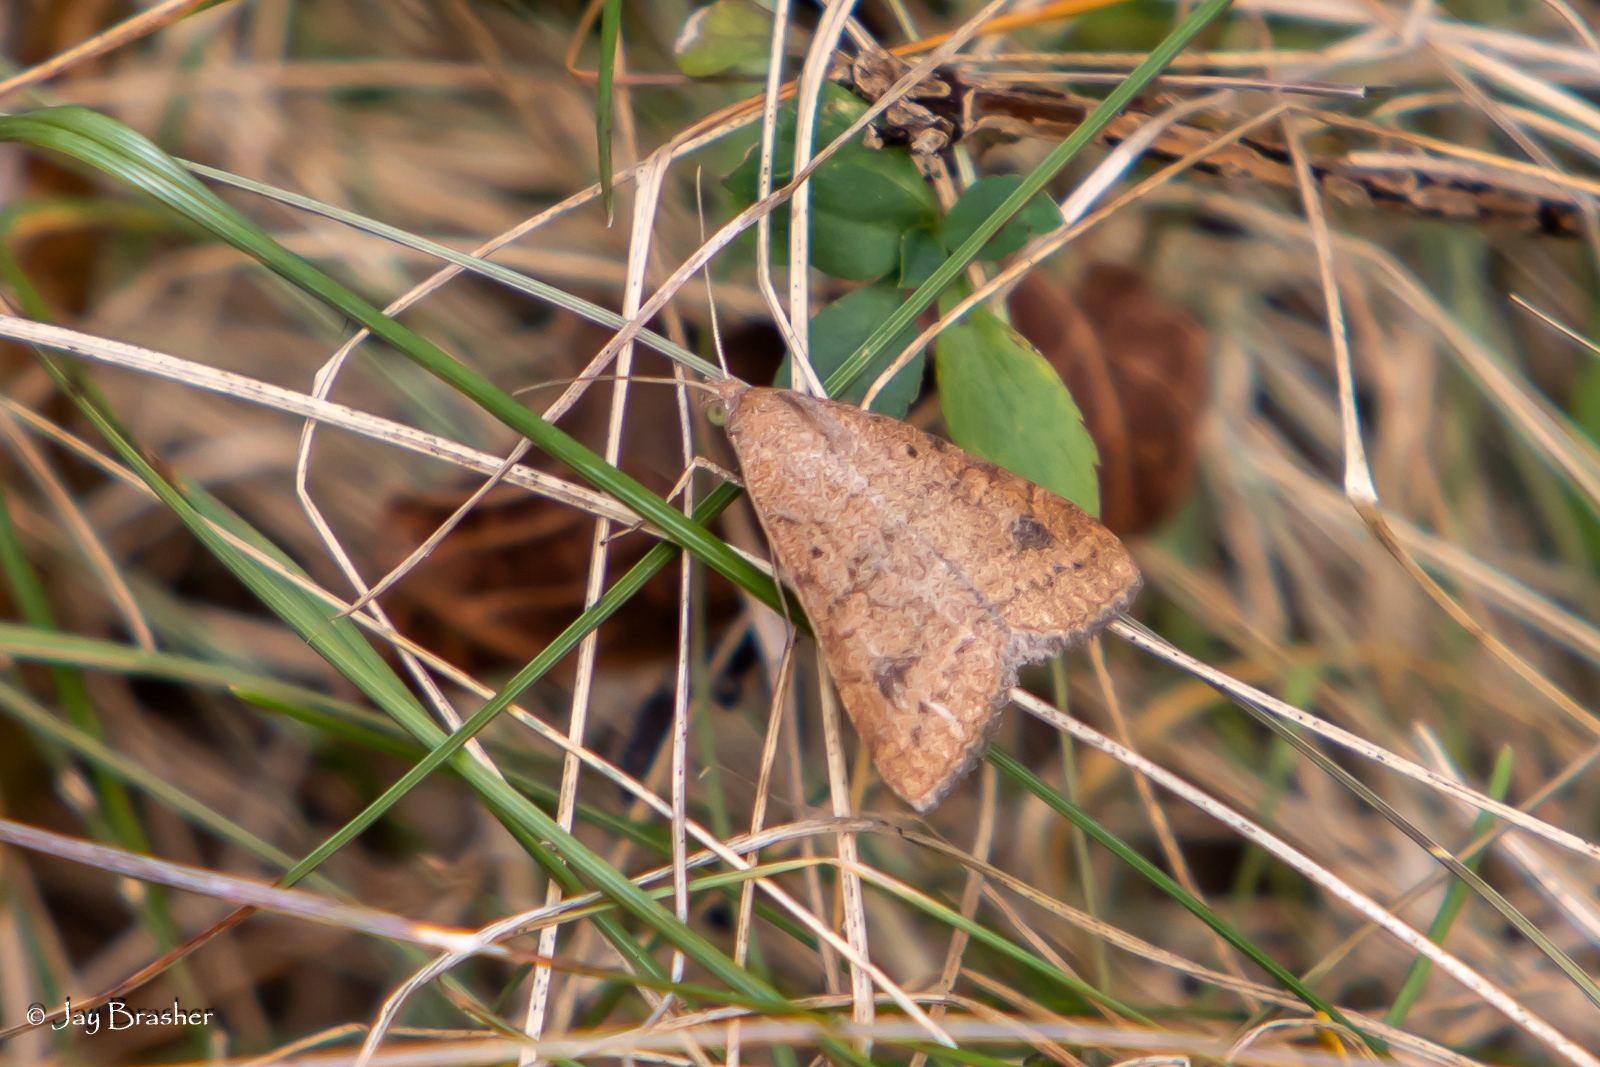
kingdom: Animalia
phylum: Arthropoda
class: Insecta
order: Lepidoptera
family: Erebidae
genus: Caenurgia
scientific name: Caenurgia chloropha
